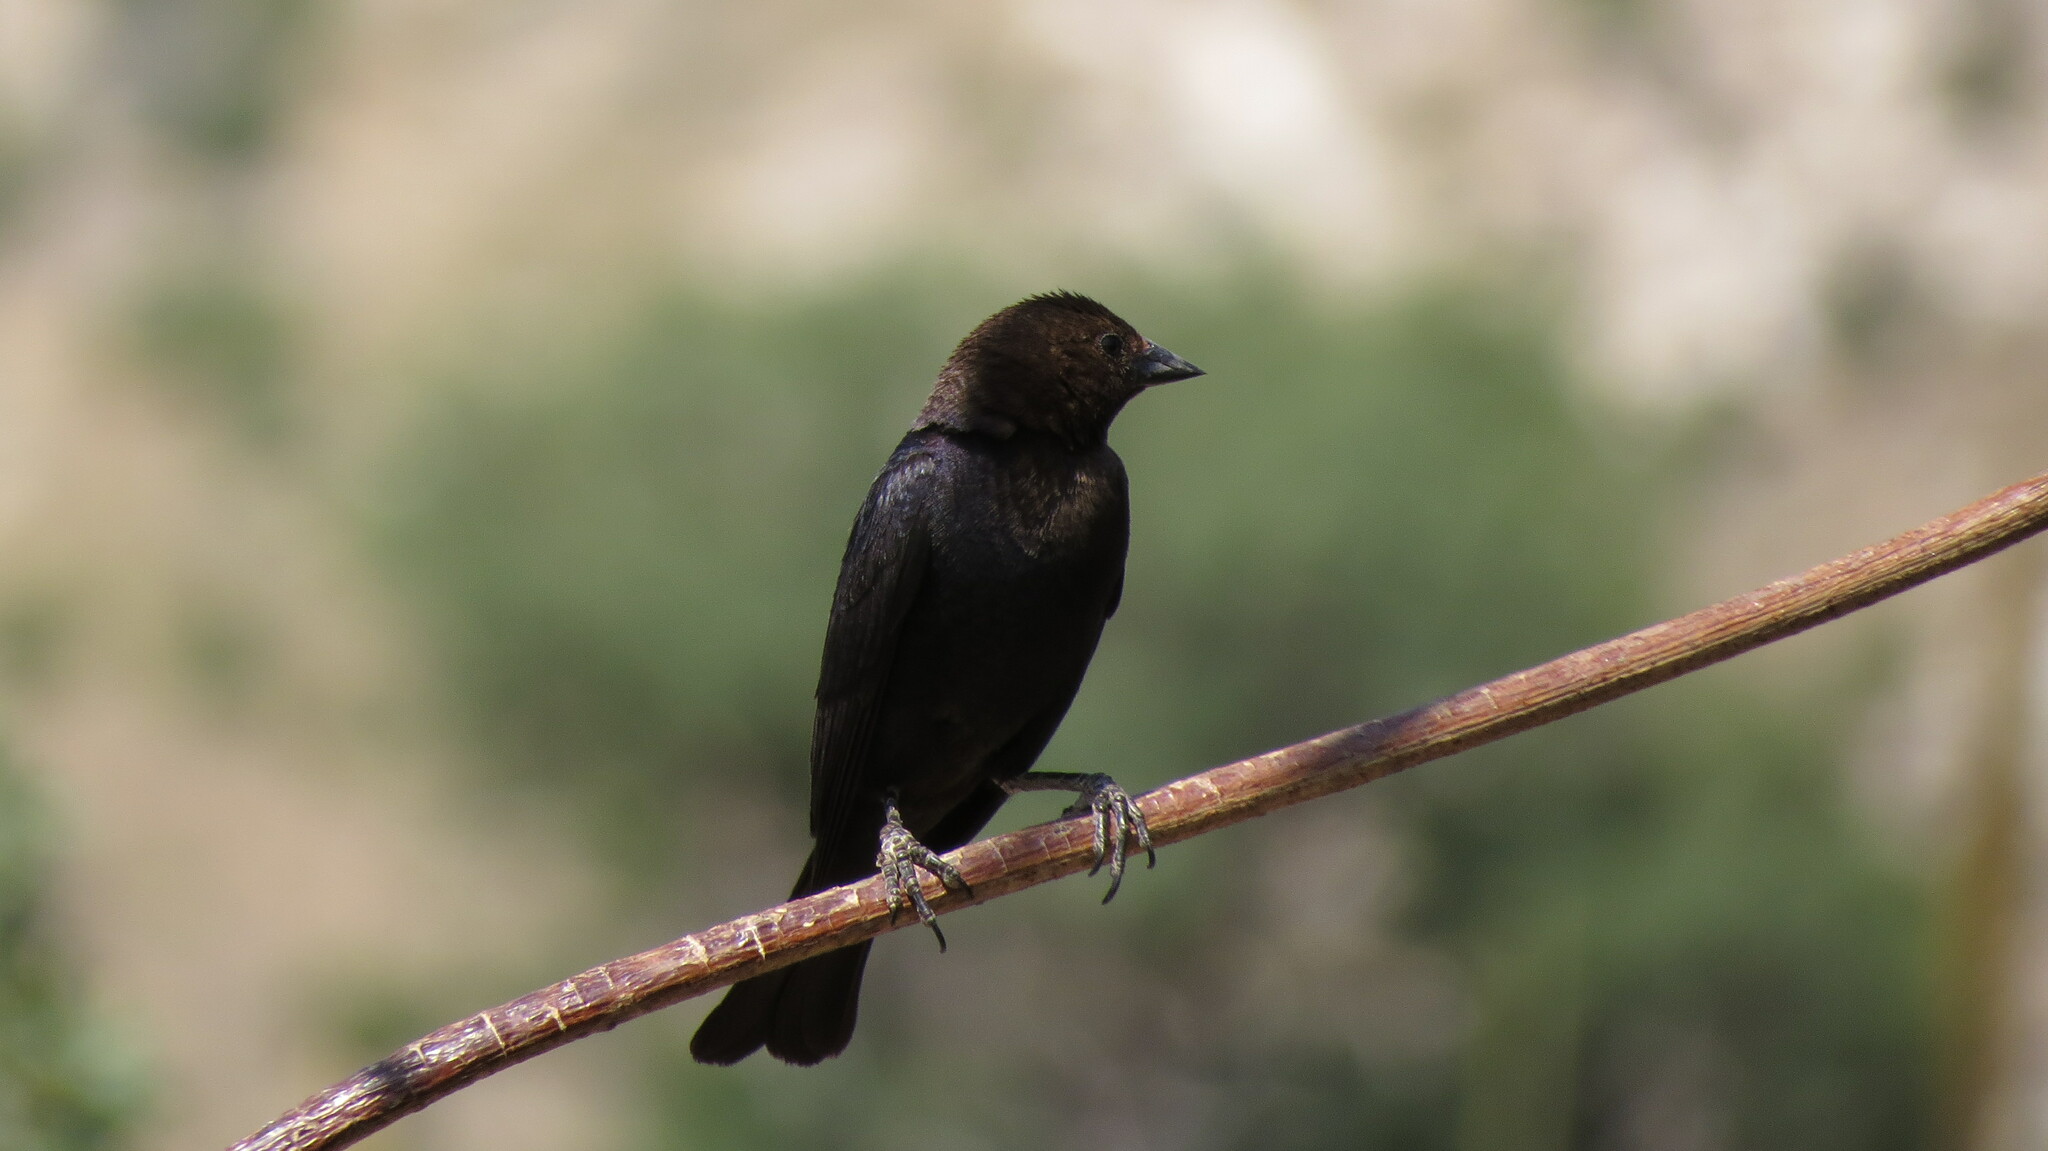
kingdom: Animalia
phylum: Chordata
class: Aves
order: Passeriformes
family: Icteridae
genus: Molothrus
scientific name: Molothrus ater
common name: Brown-headed cowbird
